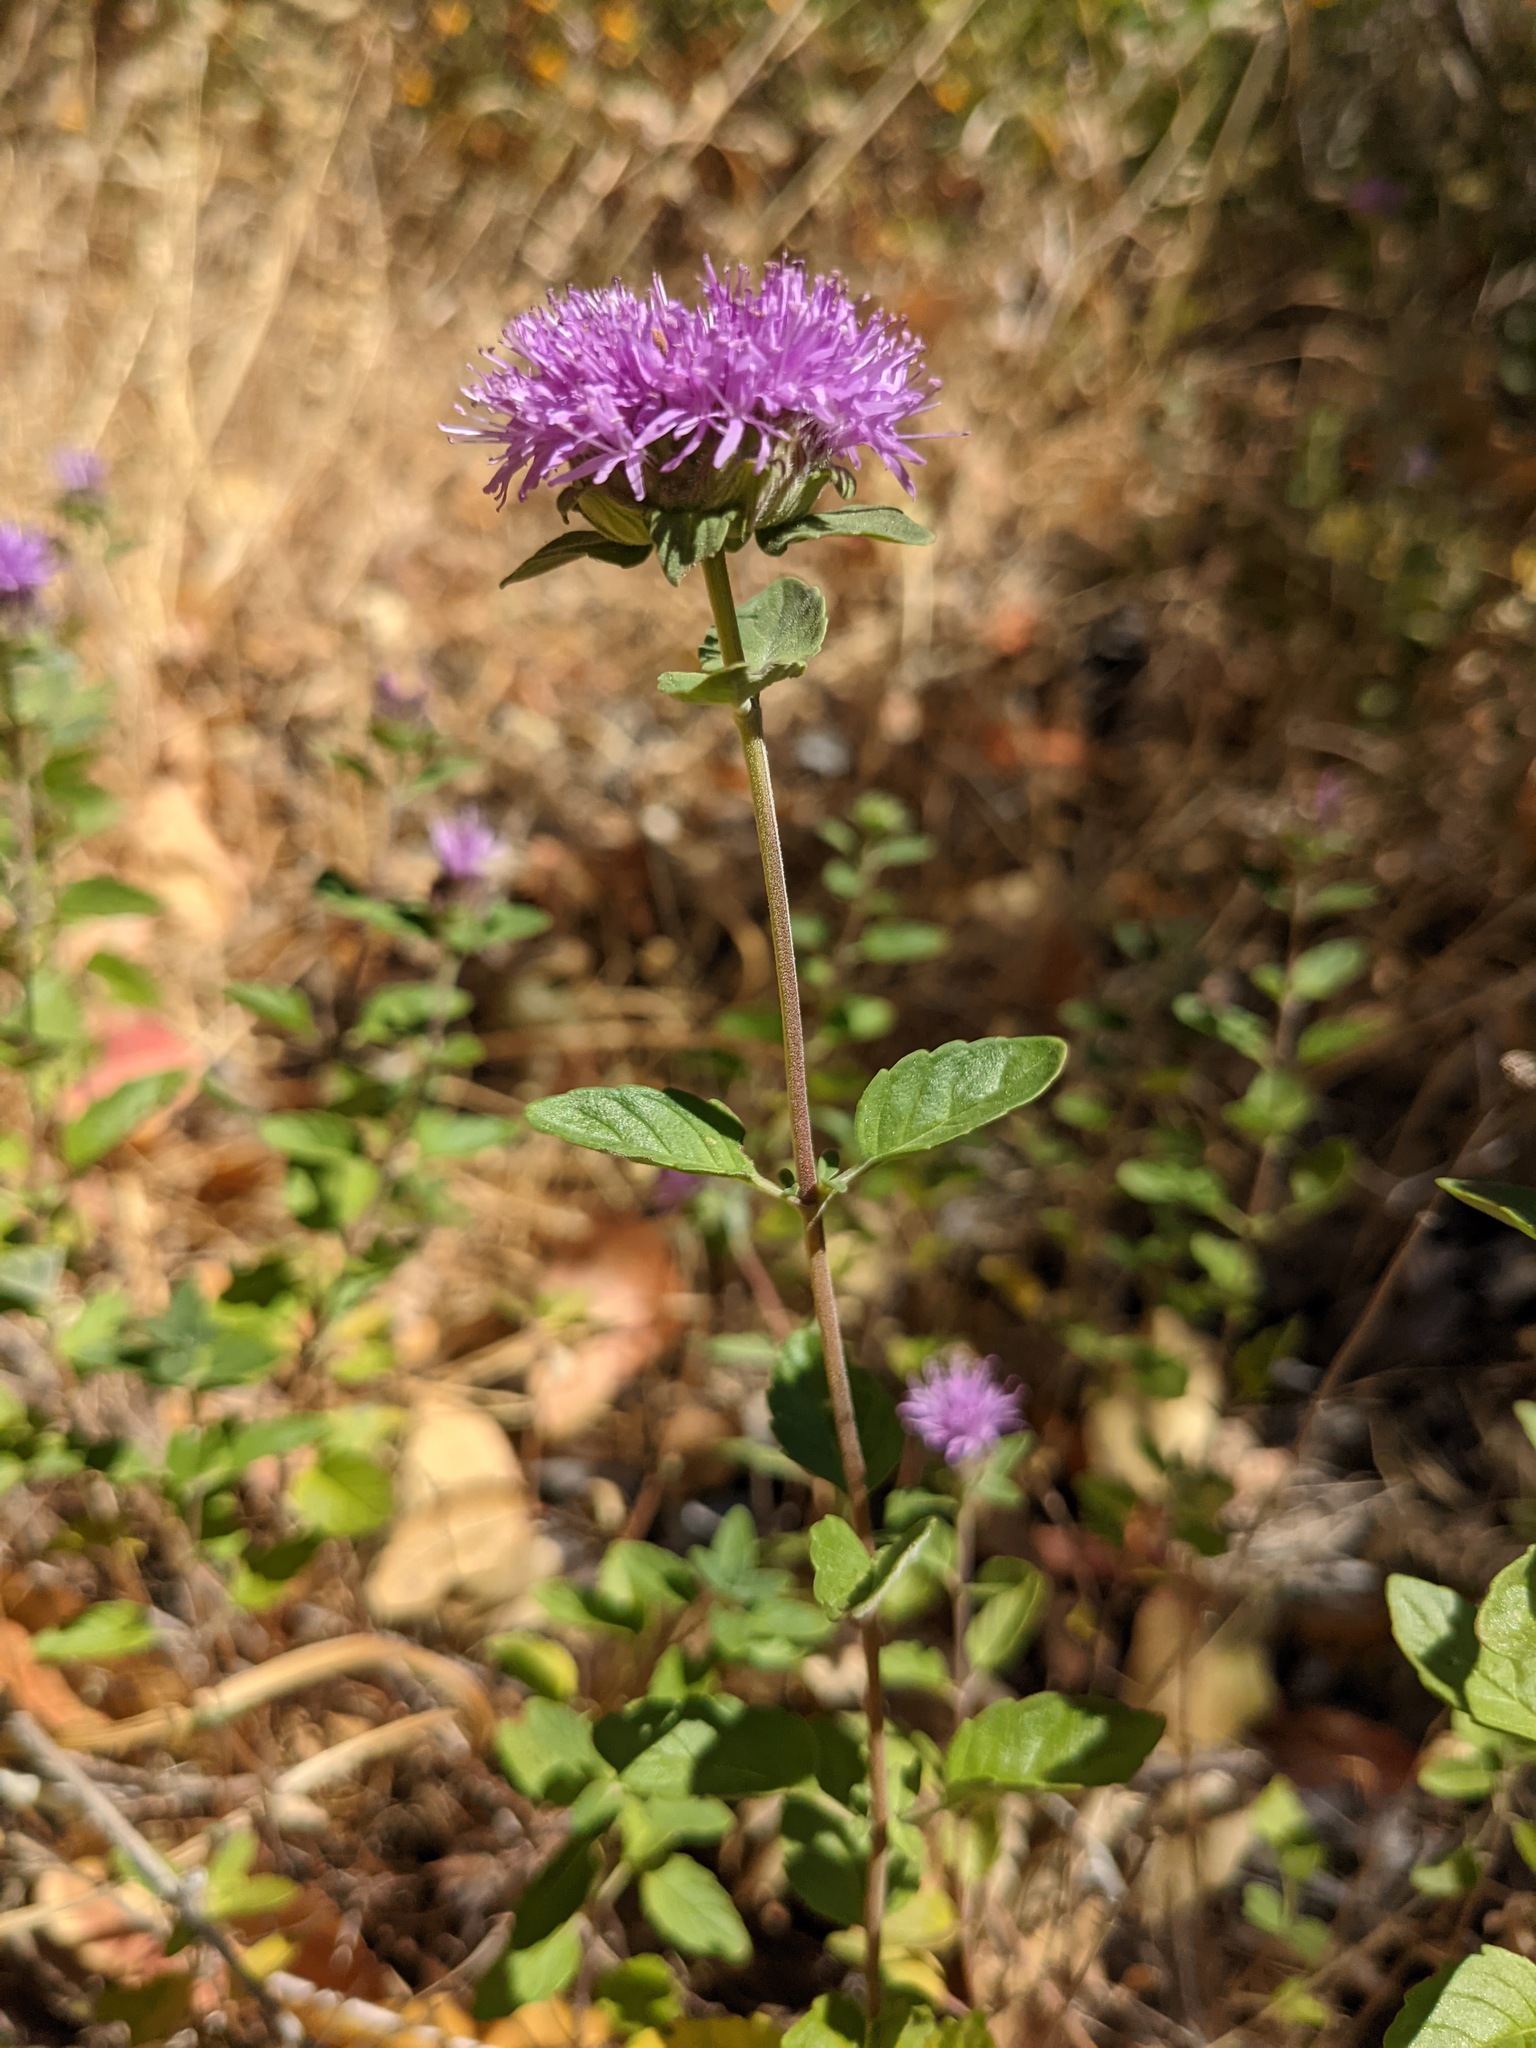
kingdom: Plantae
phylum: Tracheophyta
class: Magnoliopsida
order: Lamiales
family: Lamiaceae
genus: Monardella
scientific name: Monardella odoratissima
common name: Pacific monardella
